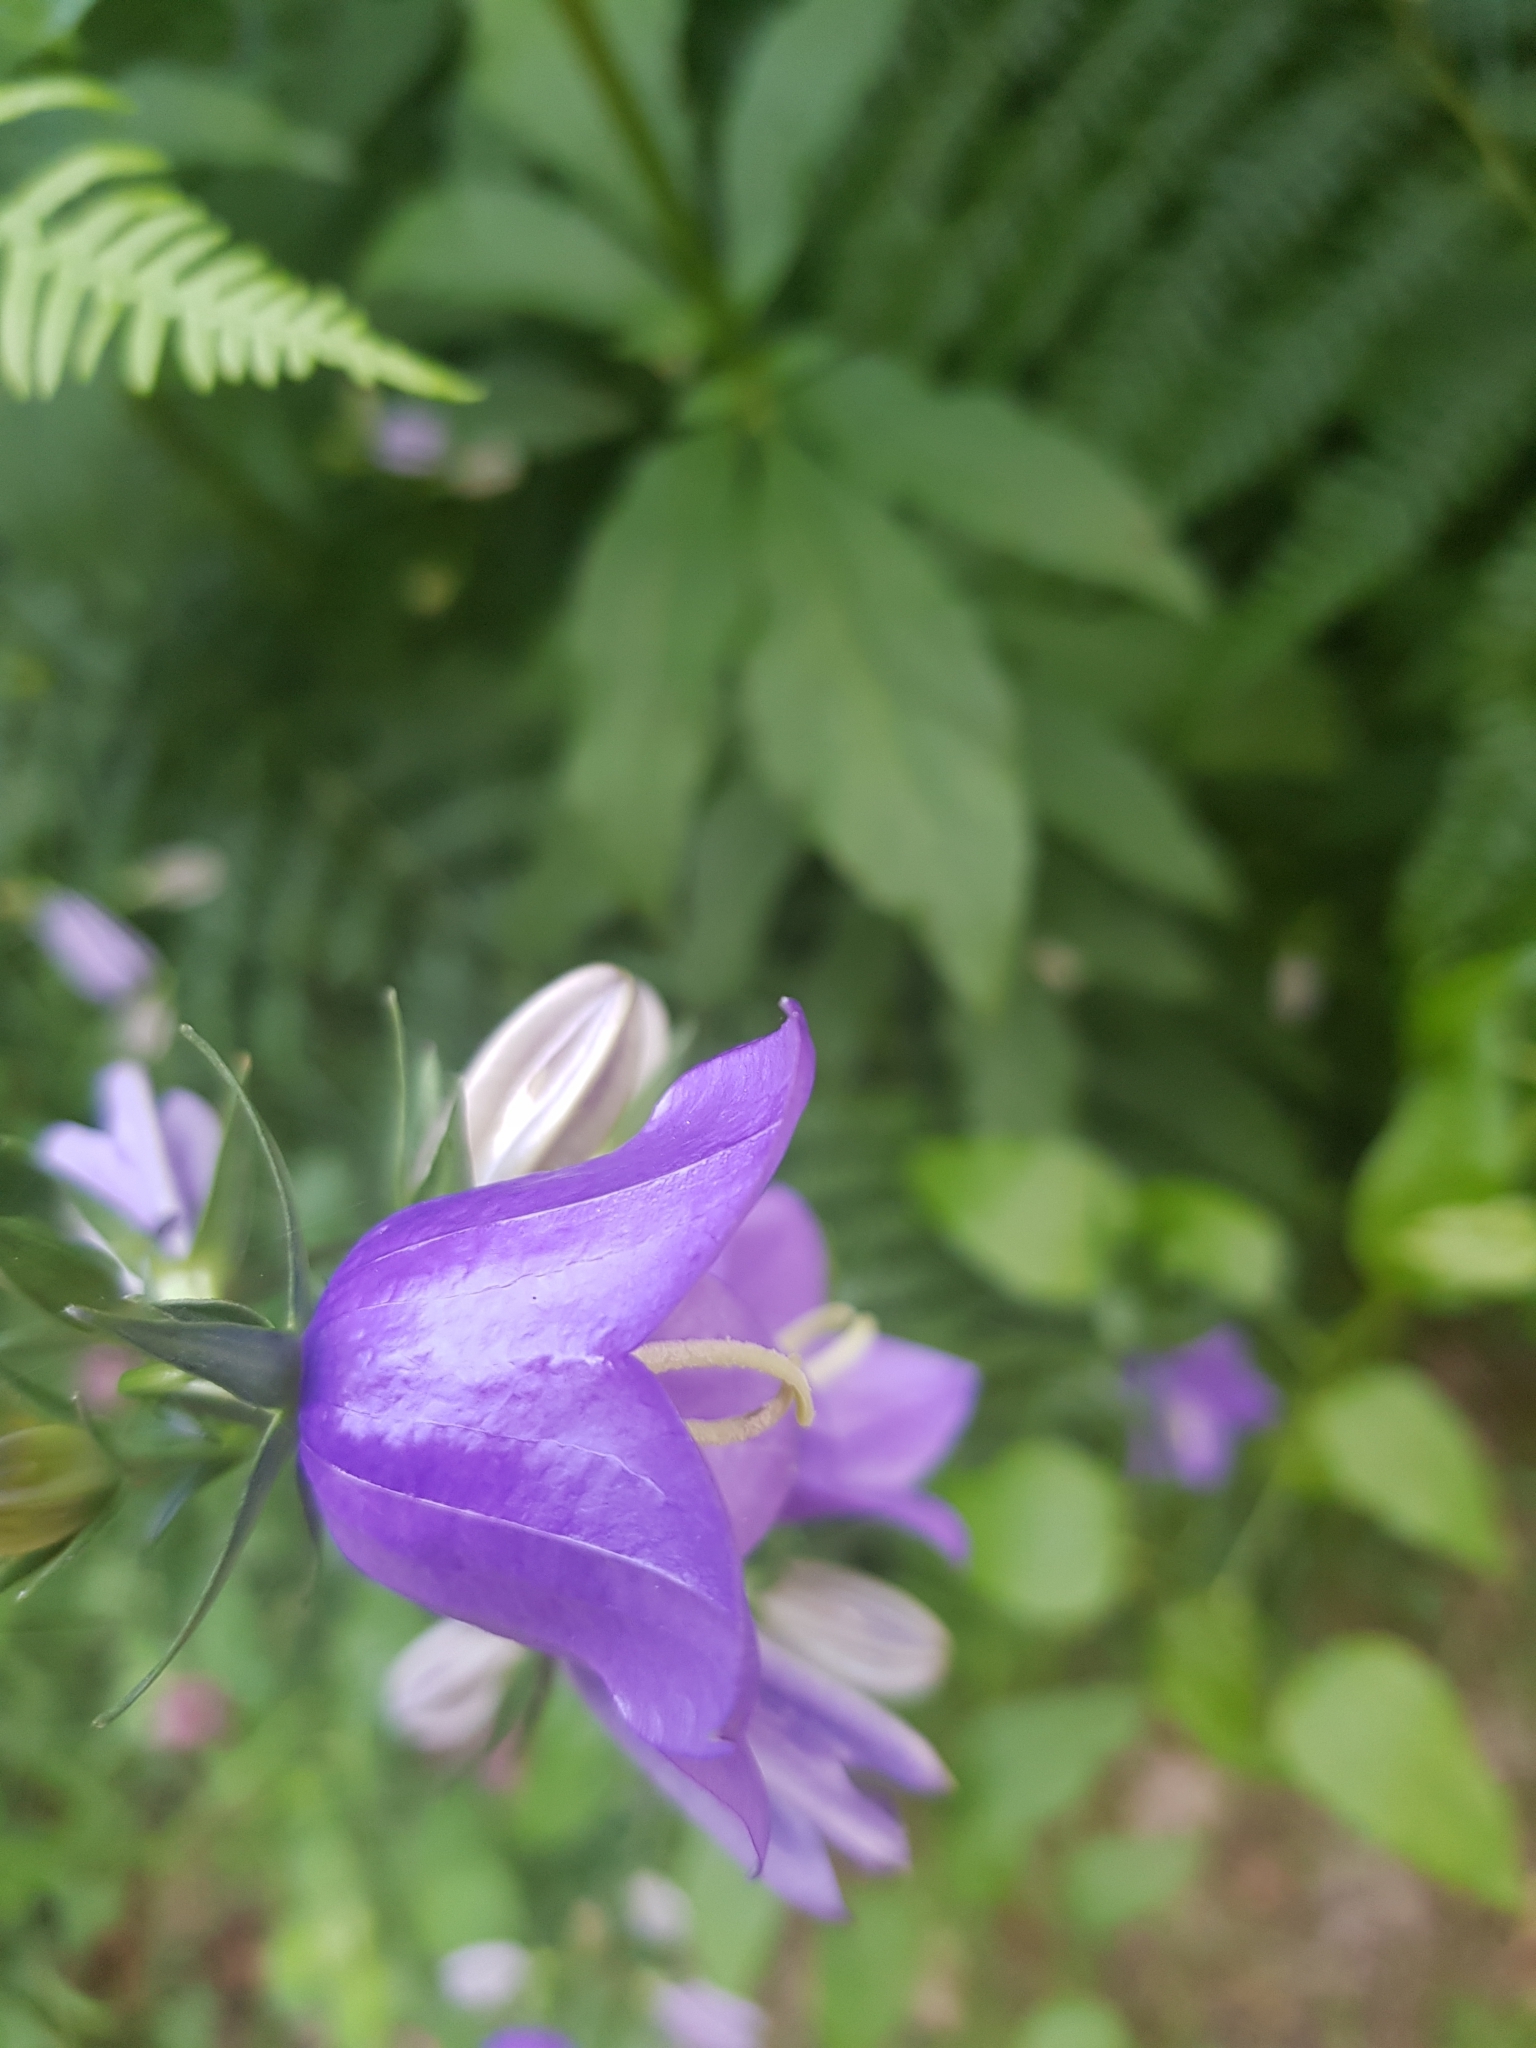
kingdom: Plantae
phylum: Tracheophyta
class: Magnoliopsida
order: Asterales
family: Campanulaceae
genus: Campanula
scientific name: Campanula persicifolia
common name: Peach-leaved bellflower
